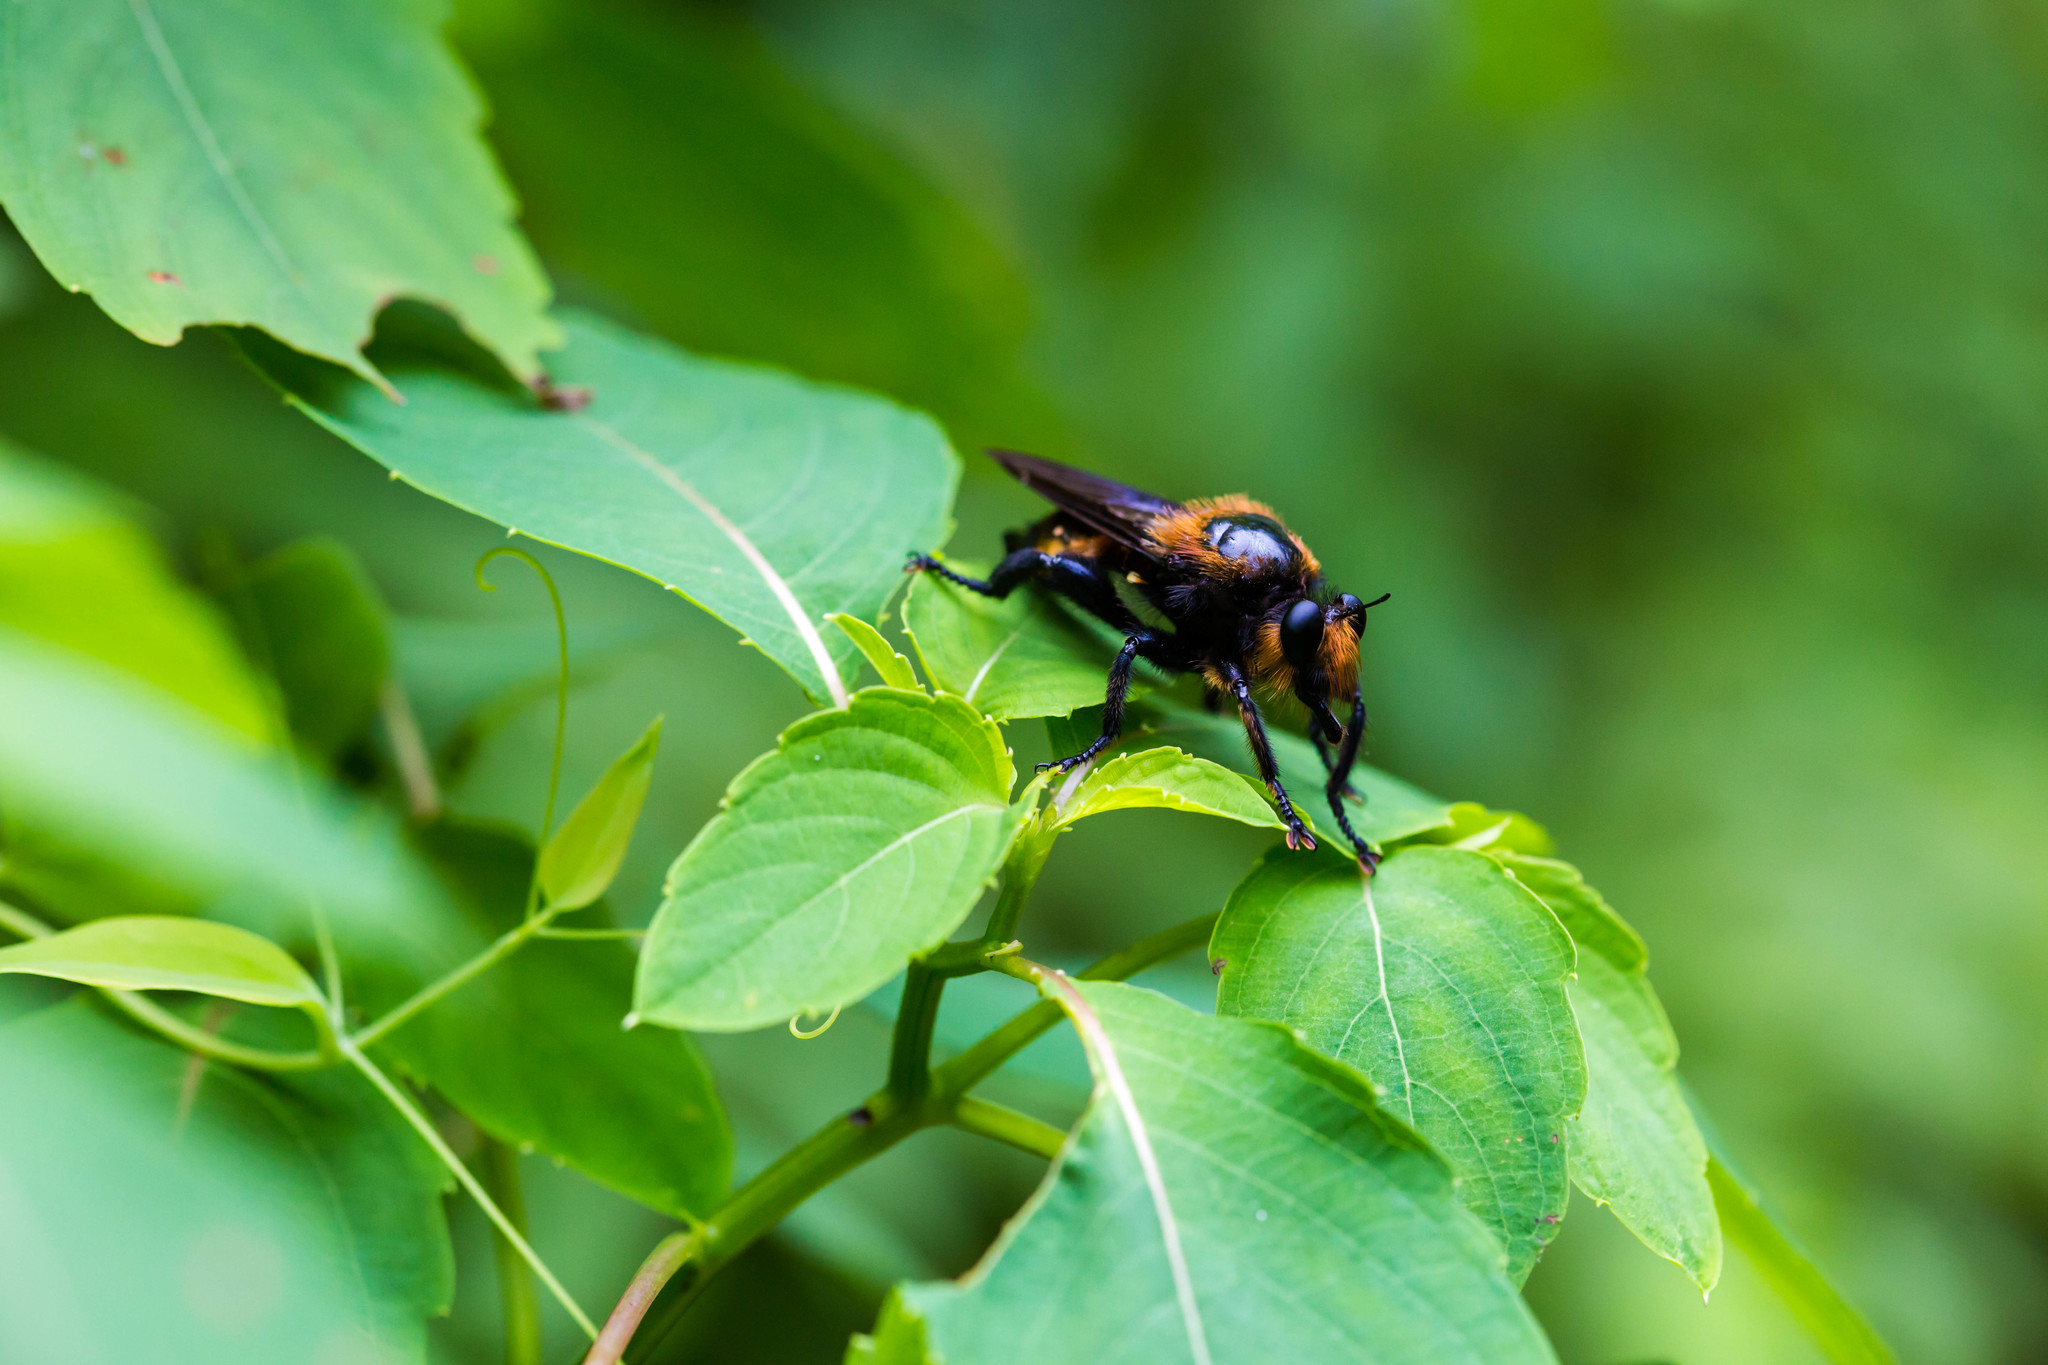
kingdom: Animalia
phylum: Arthropoda
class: Insecta
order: Diptera
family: Asilidae
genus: Laphria
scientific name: Laphria apila
